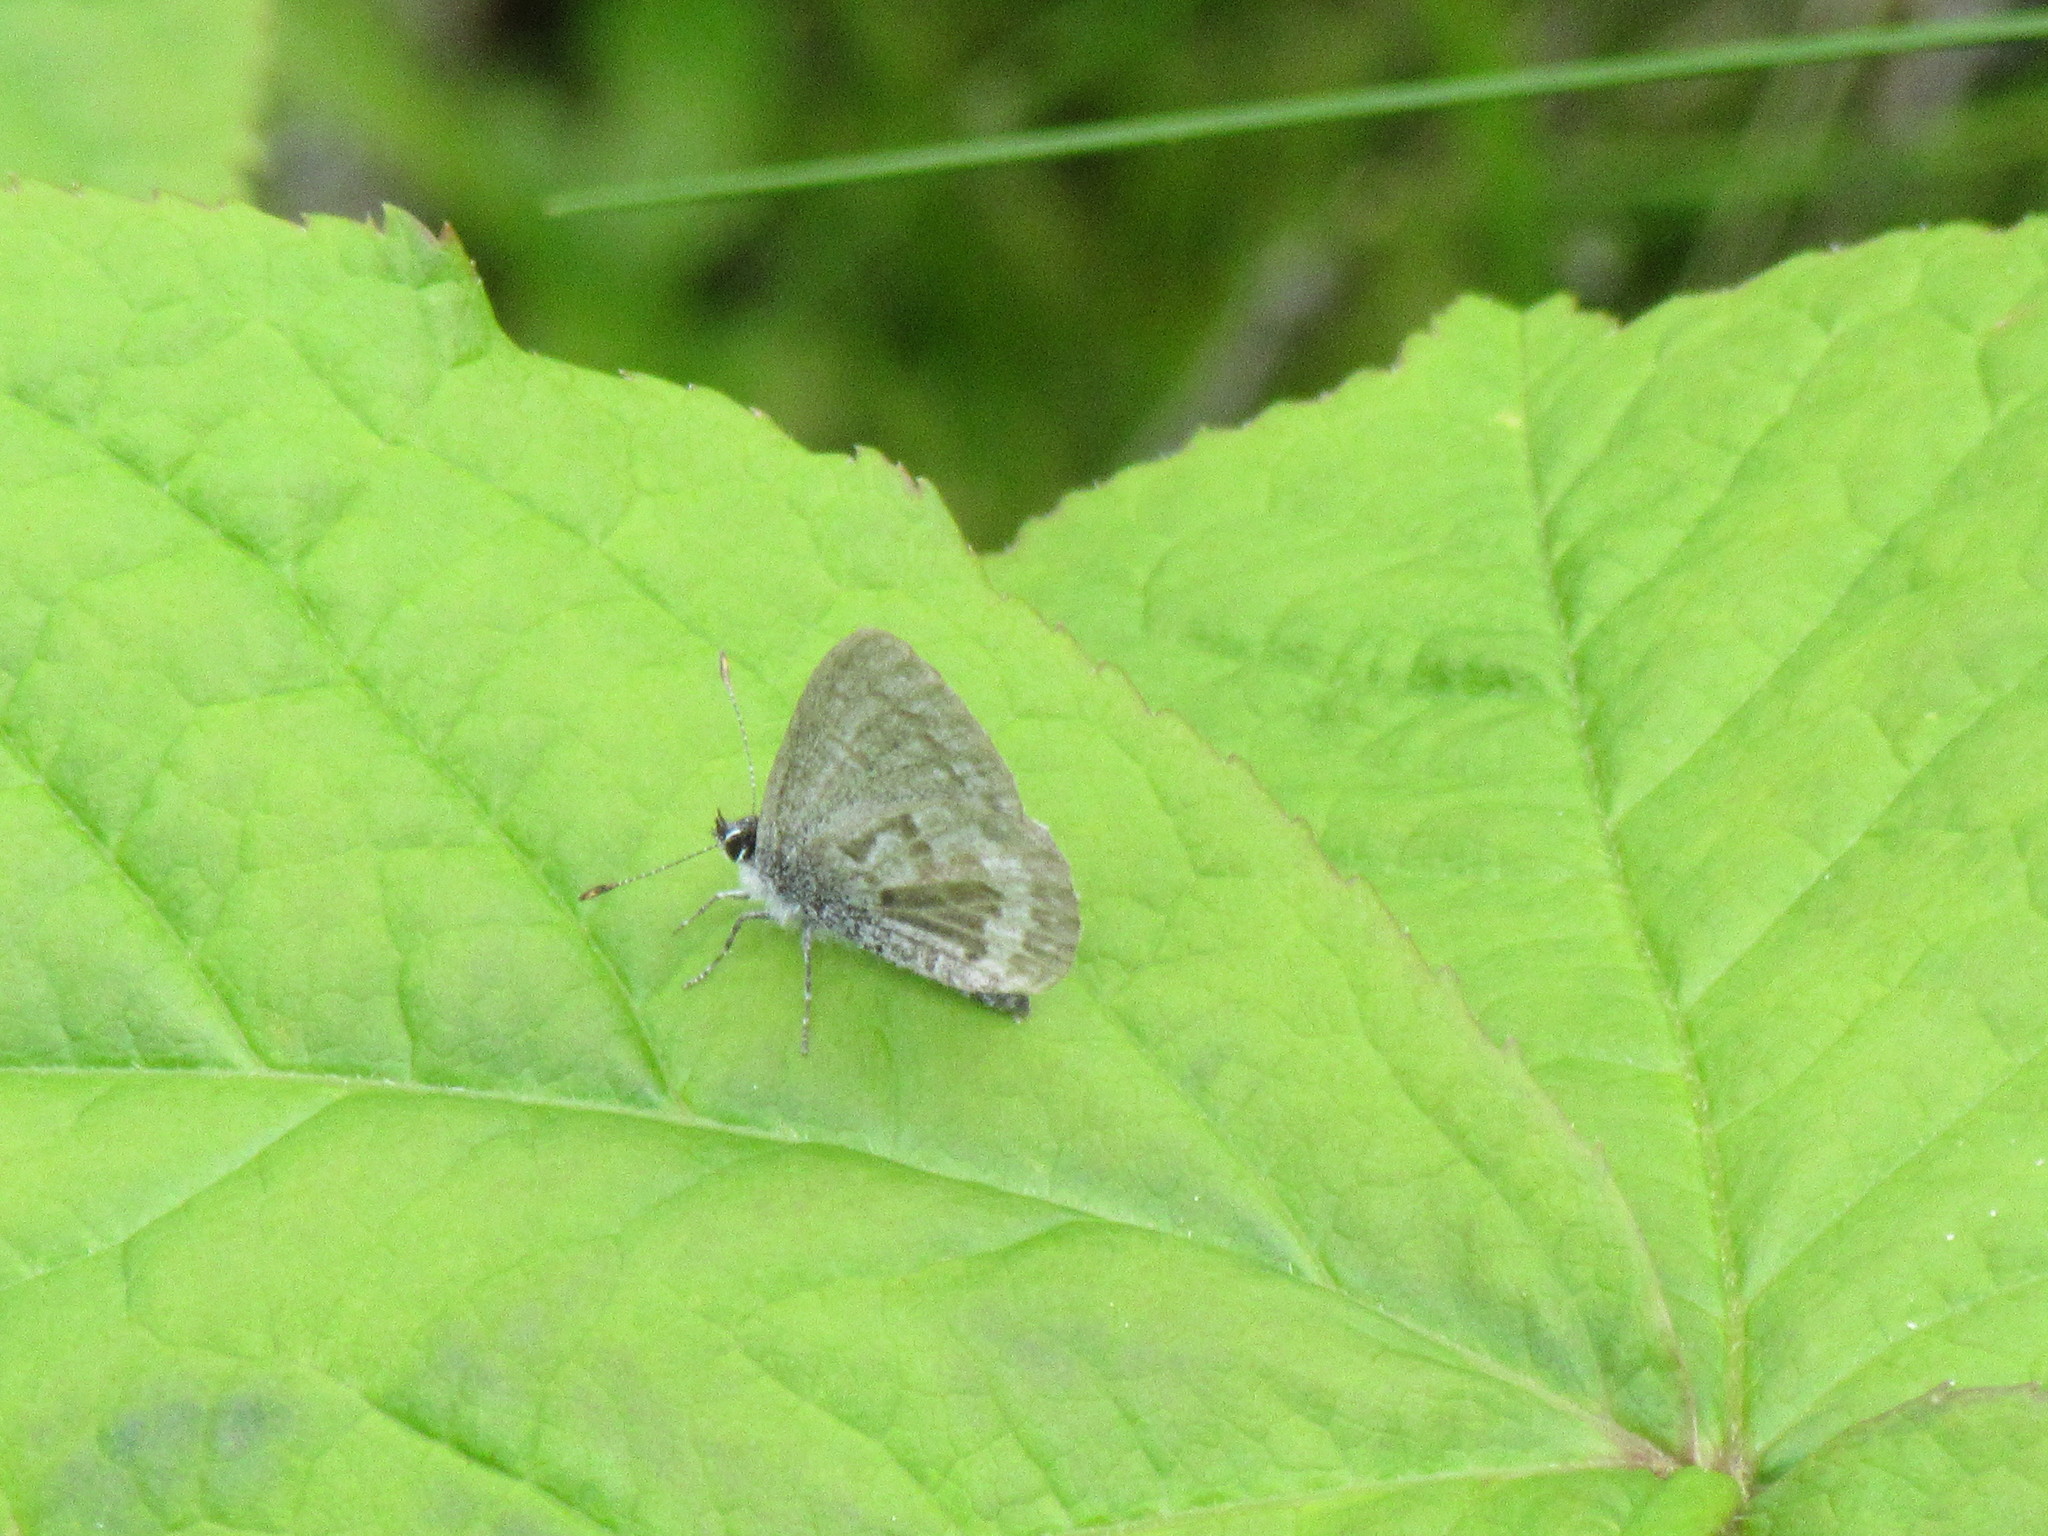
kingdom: Animalia
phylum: Arthropoda
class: Insecta
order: Lepidoptera
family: Lycaenidae
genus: Celastrina
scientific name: Celastrina lucia
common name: Lucia azure
